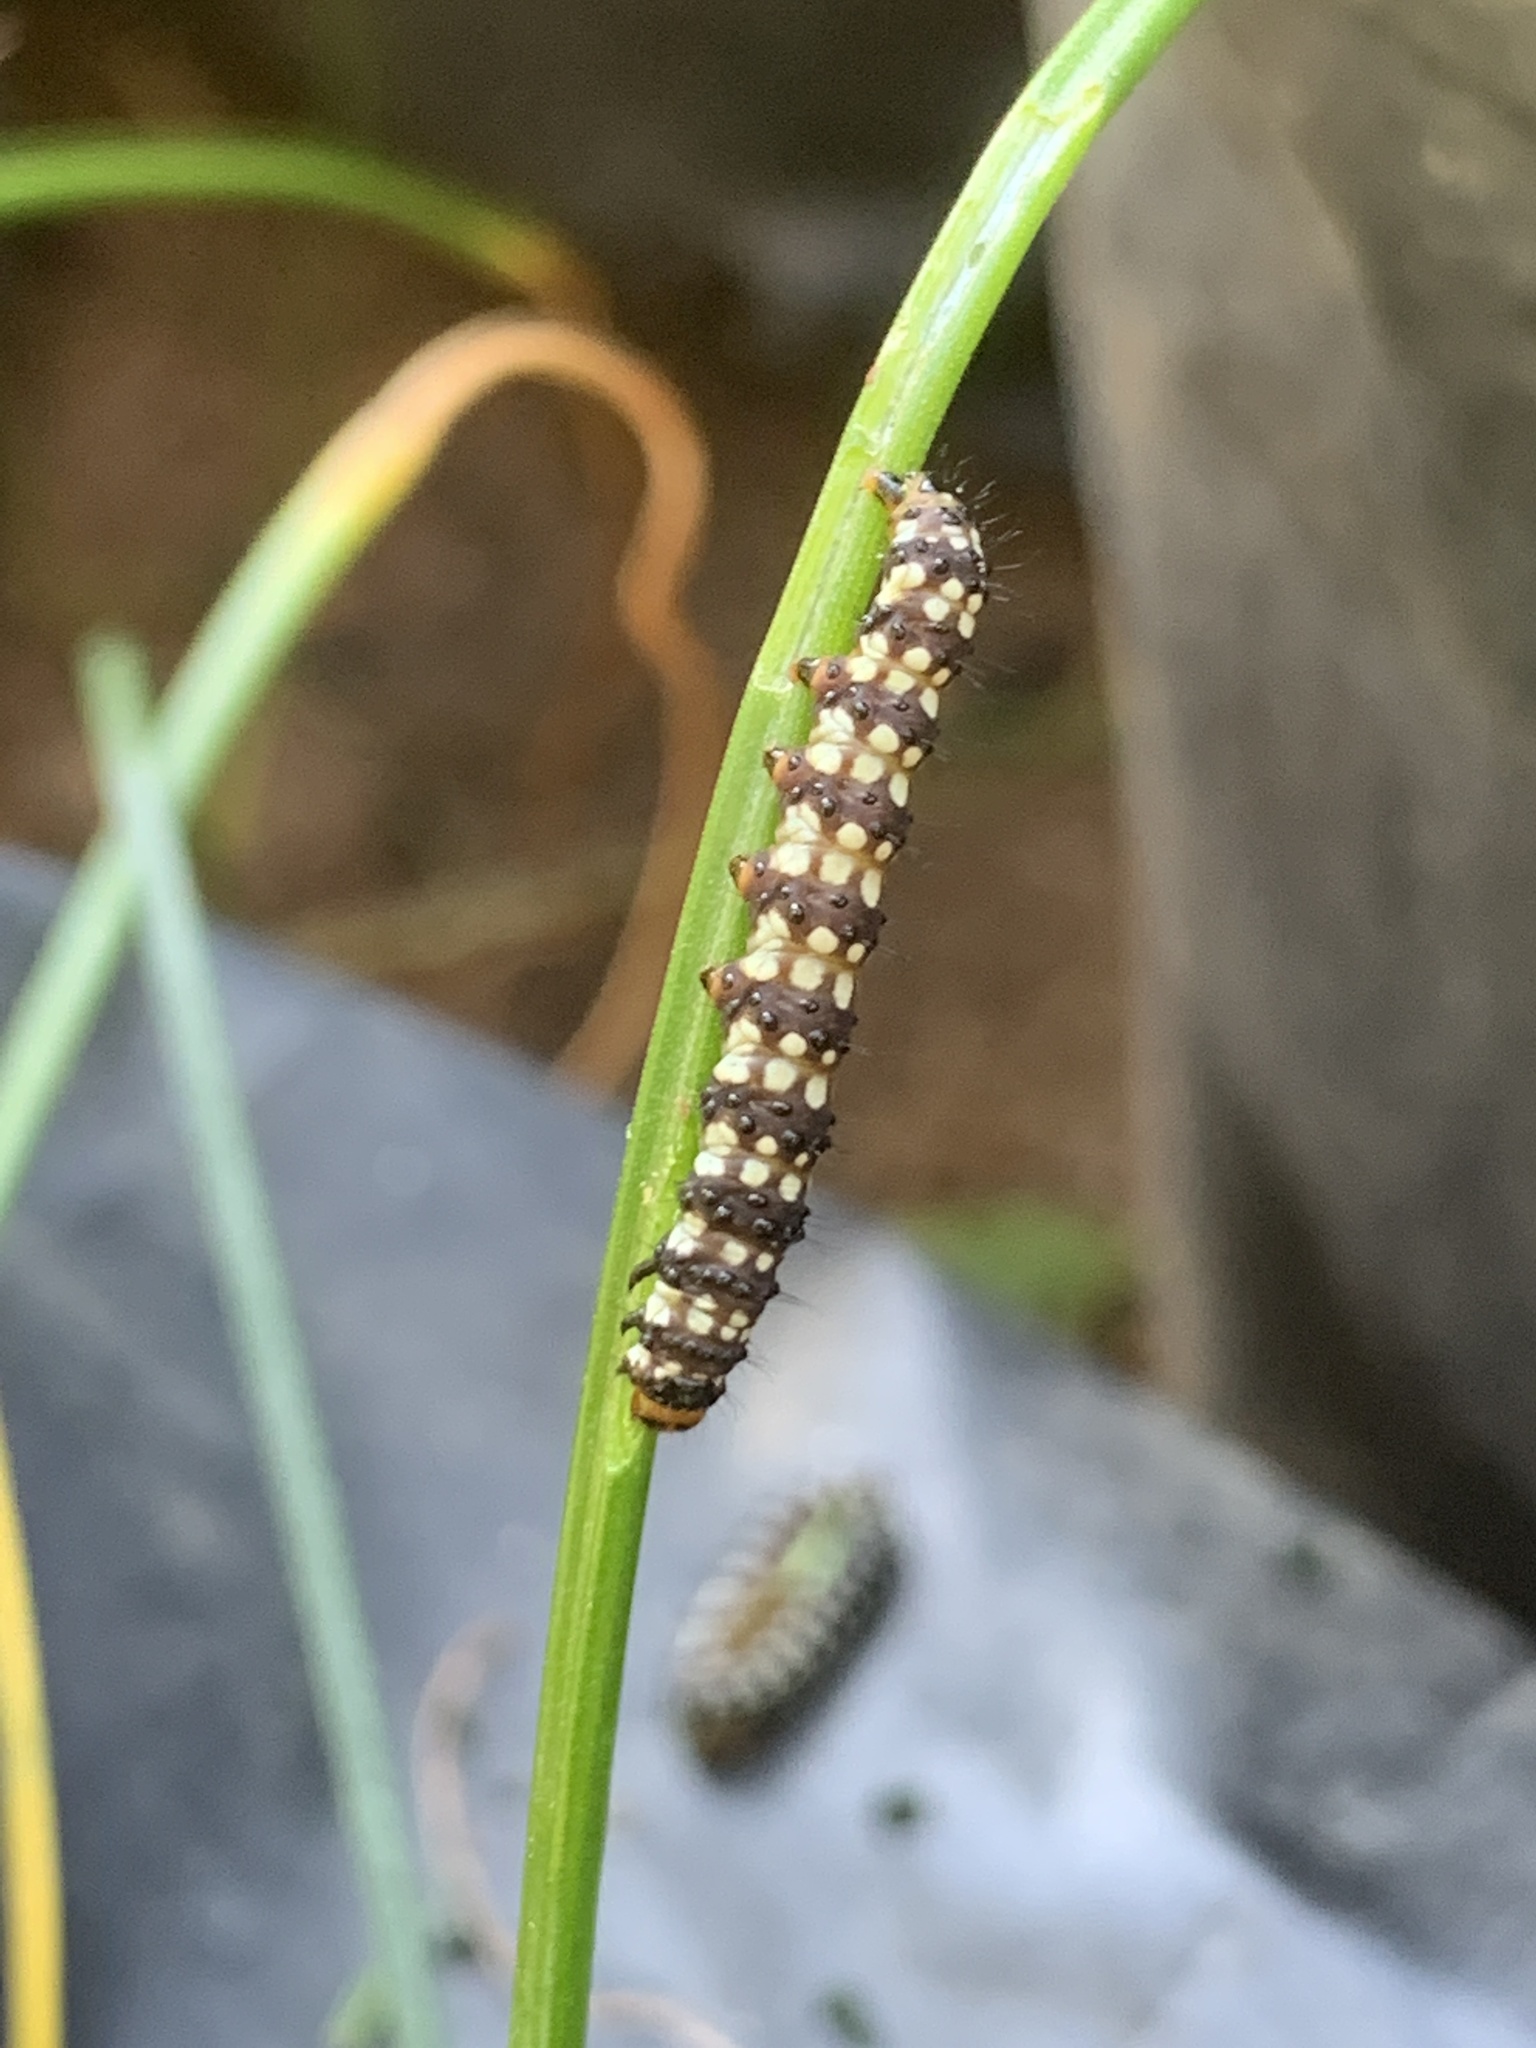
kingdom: Animalia
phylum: Arthropoda
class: Insecta
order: Lepidoptera
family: Noctuidae
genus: Brithys
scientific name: Brithys crini
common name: Kew arches
